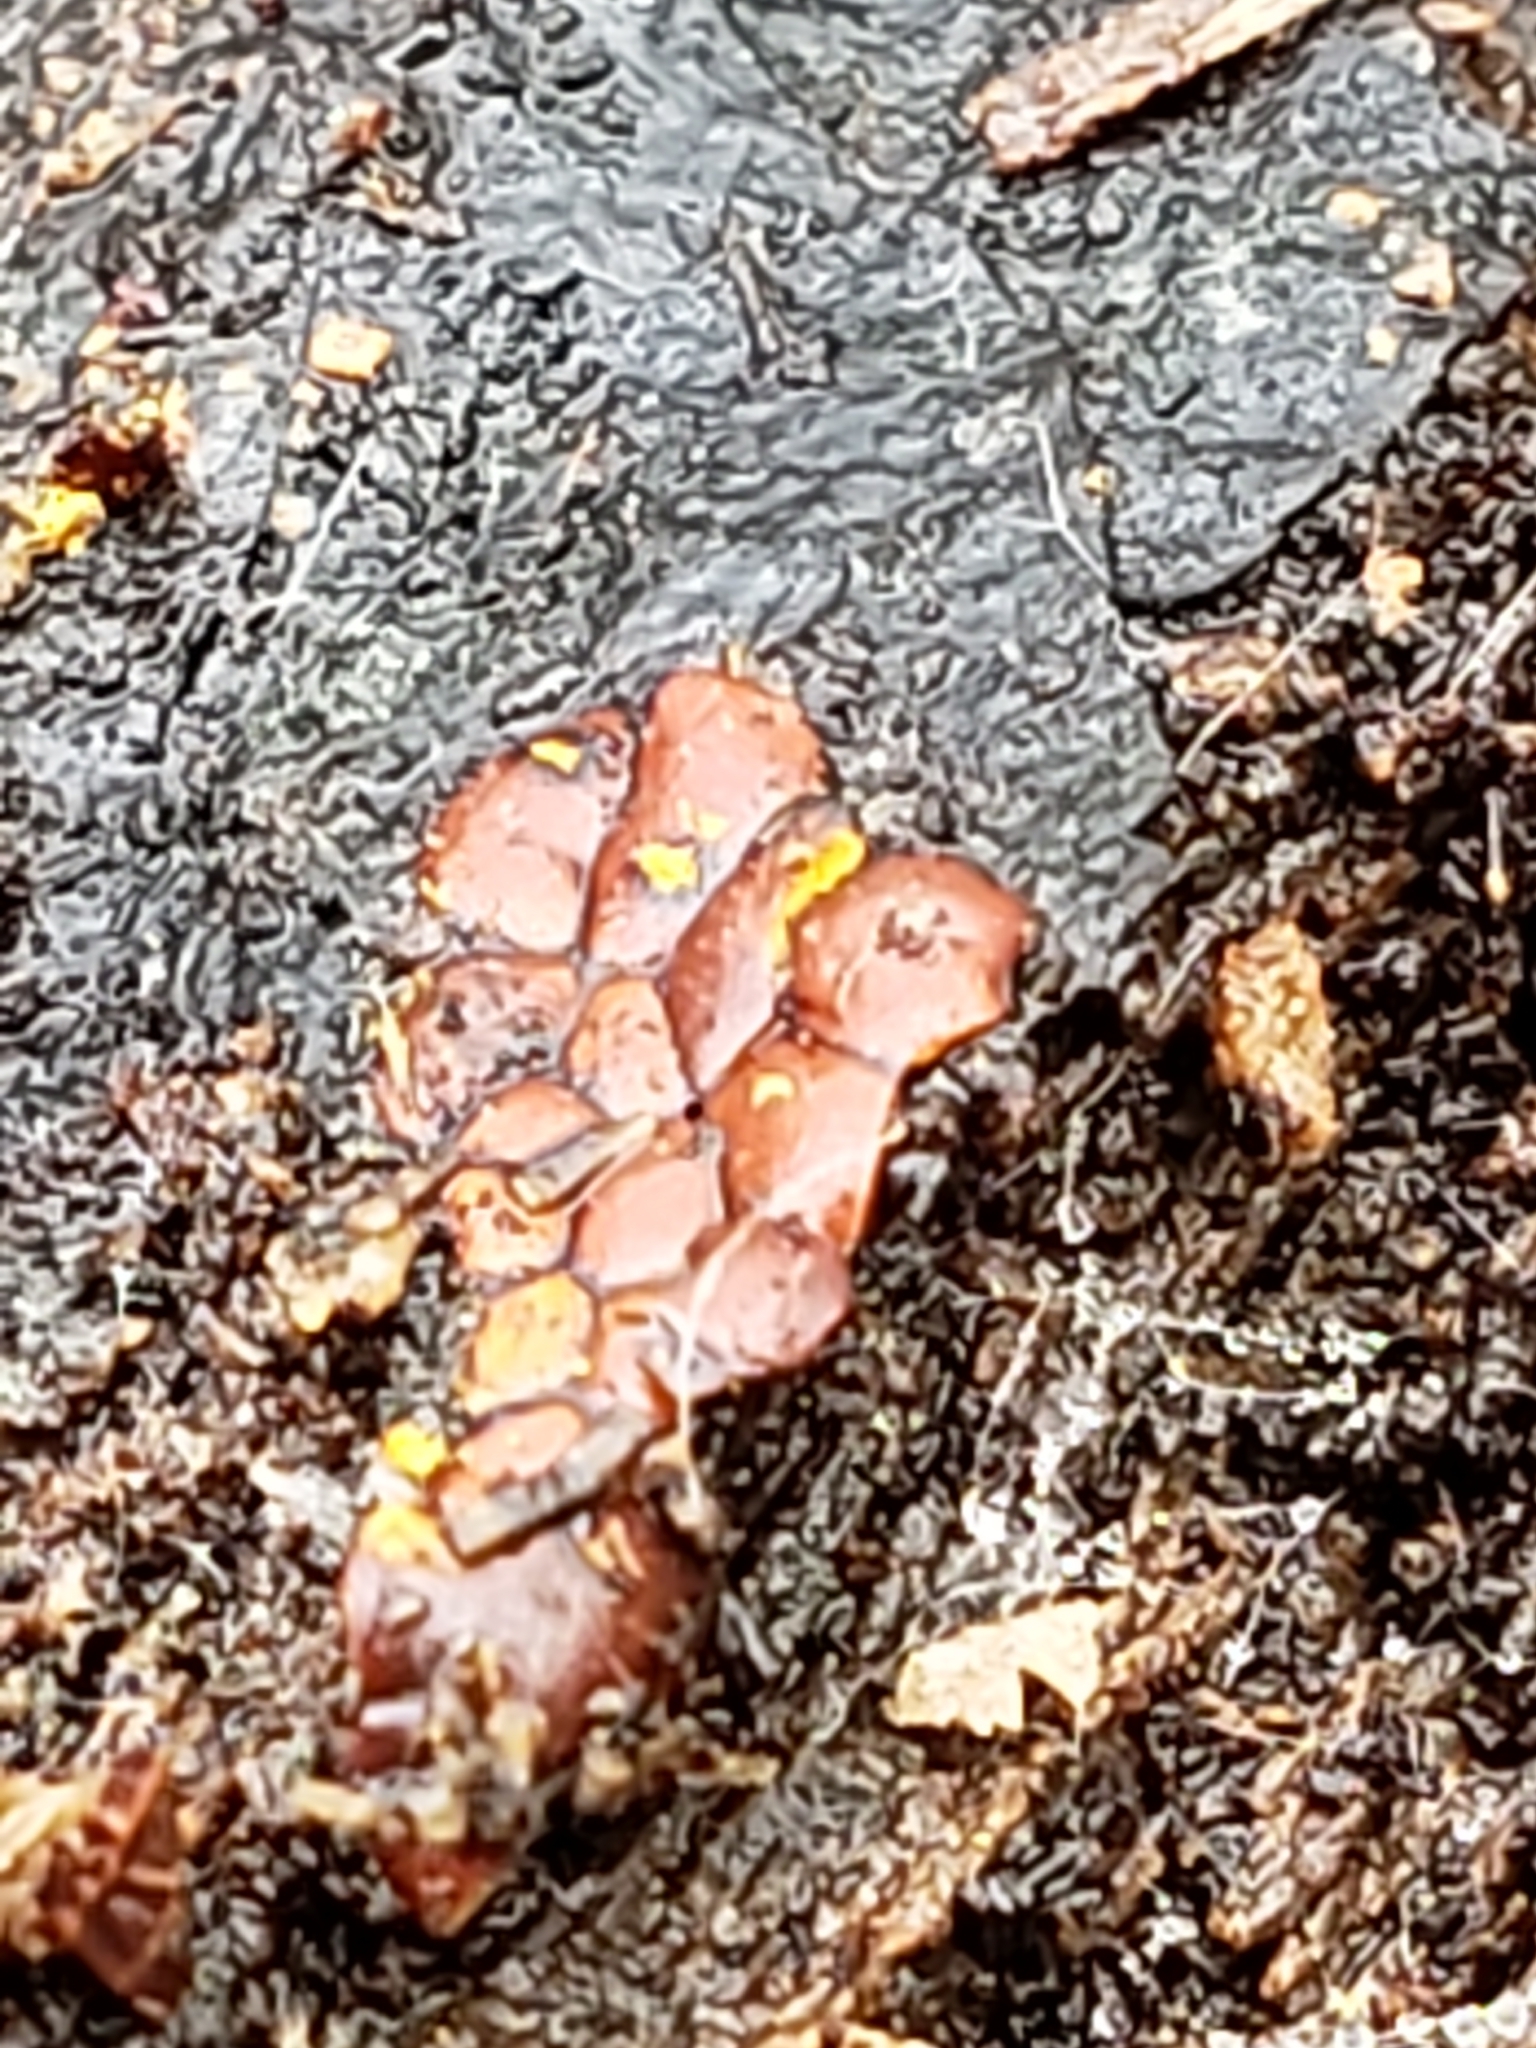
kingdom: Protozoa
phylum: Mycetozoa
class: Myxomycetes
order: Trichiales
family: Trichiaceae
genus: Perichaena
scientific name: Perichaena depressa
